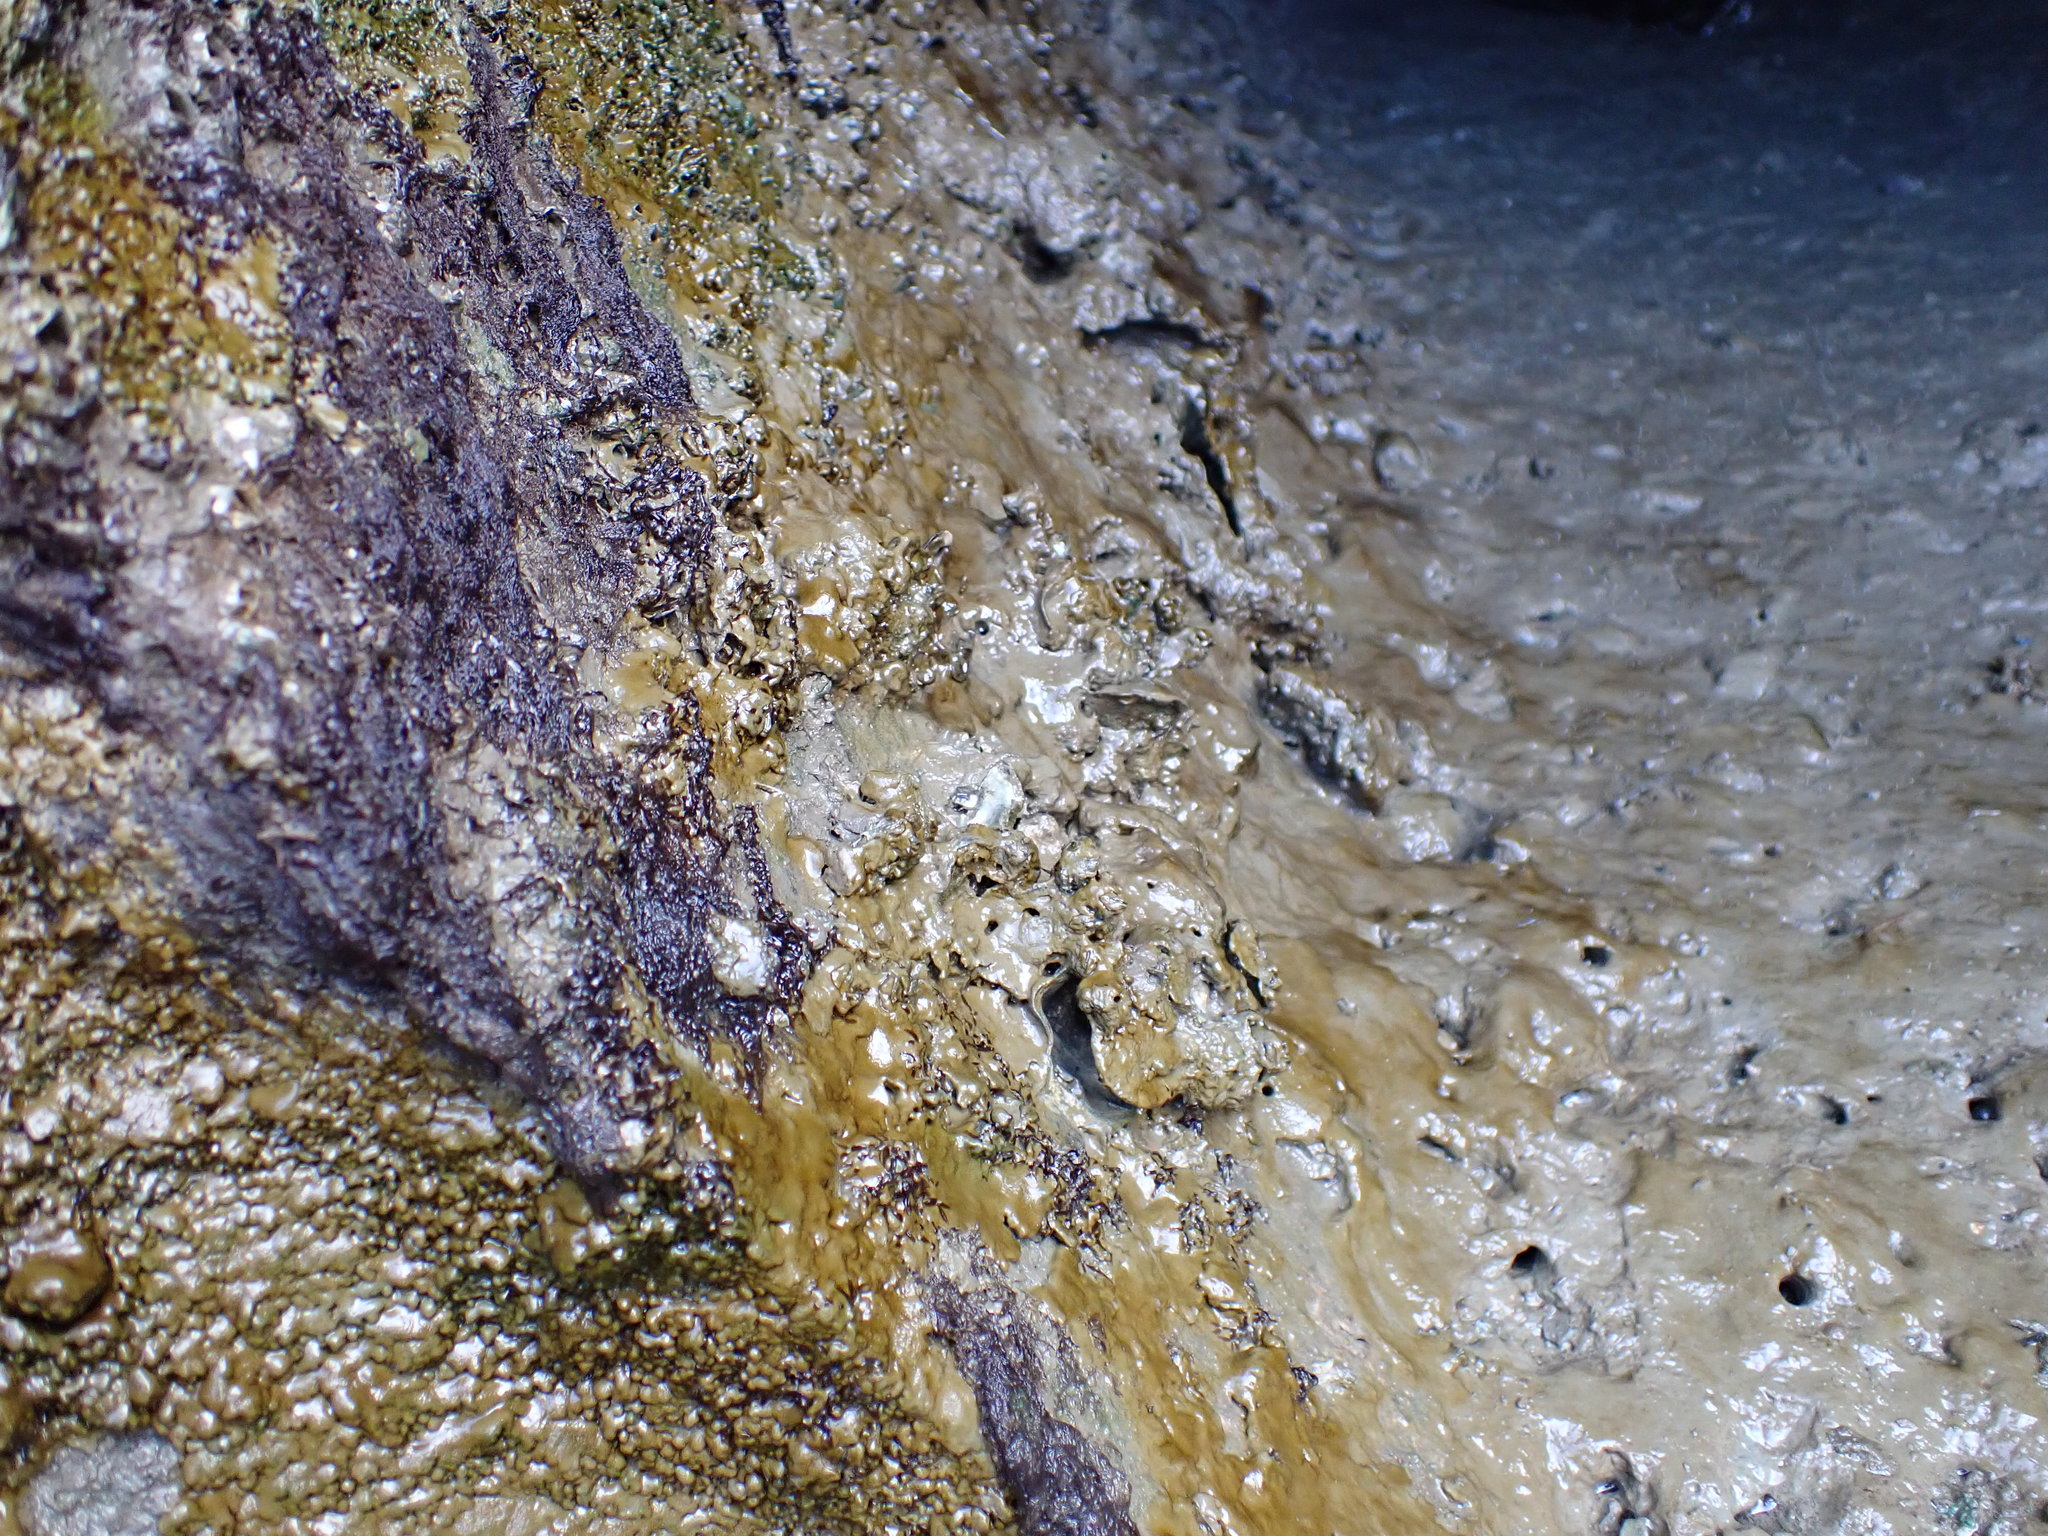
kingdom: Animalia
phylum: Mollusca
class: Bivalvia
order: Ostreida
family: Ostreidae
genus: Magallana
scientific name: Magallana gigas
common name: Pacific oyster
